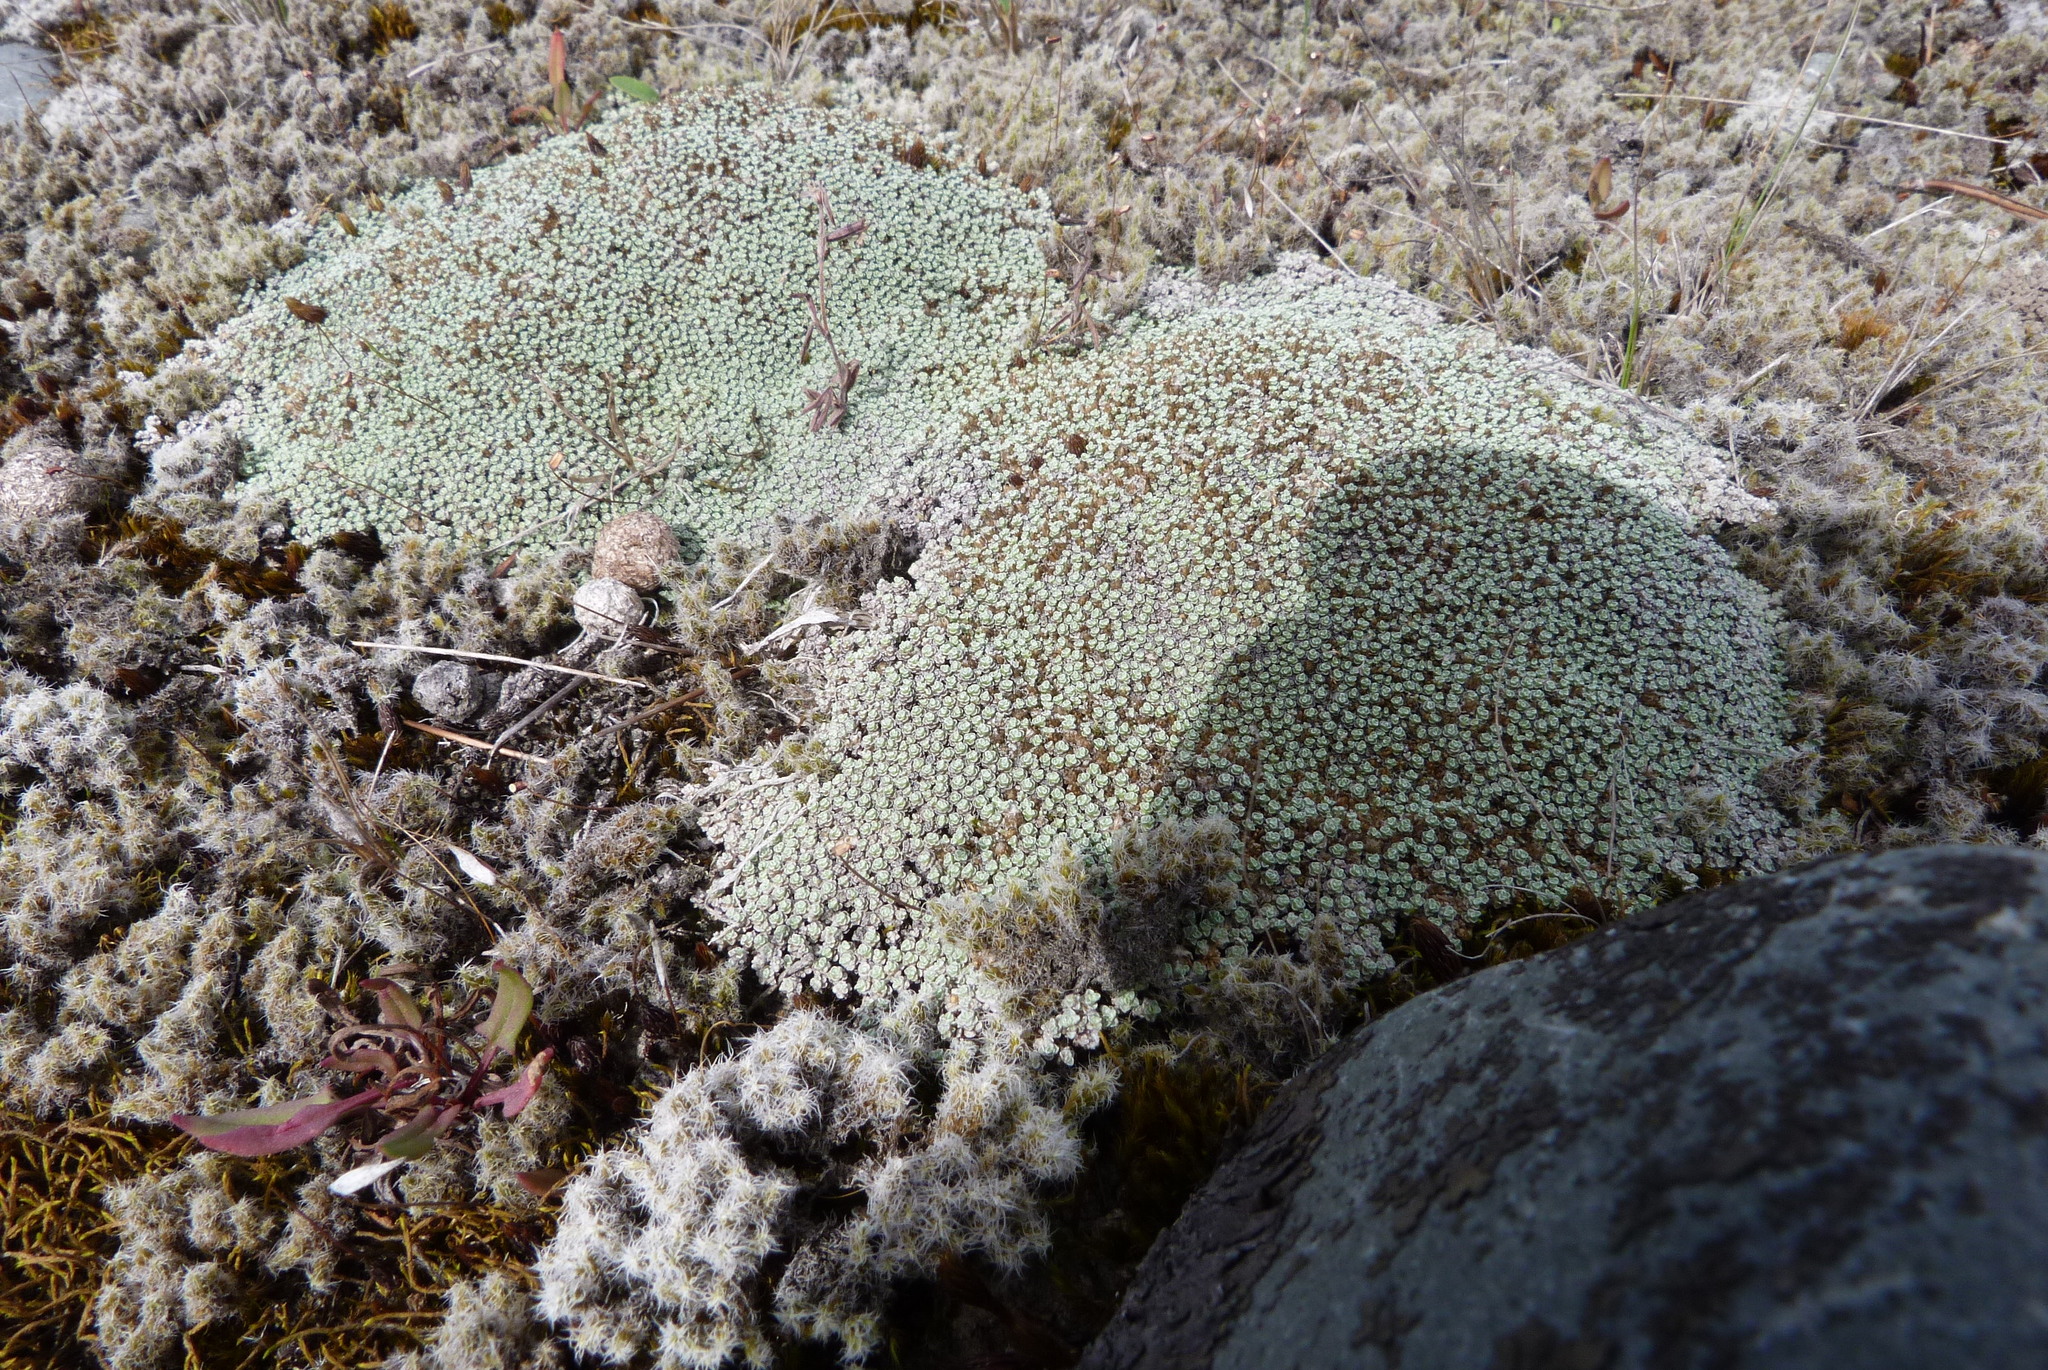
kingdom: Plantae
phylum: Tracheophyta
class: Magnoliopsida
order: Asterales
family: Asteraceae
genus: Raoulia
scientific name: Raoulia australis
